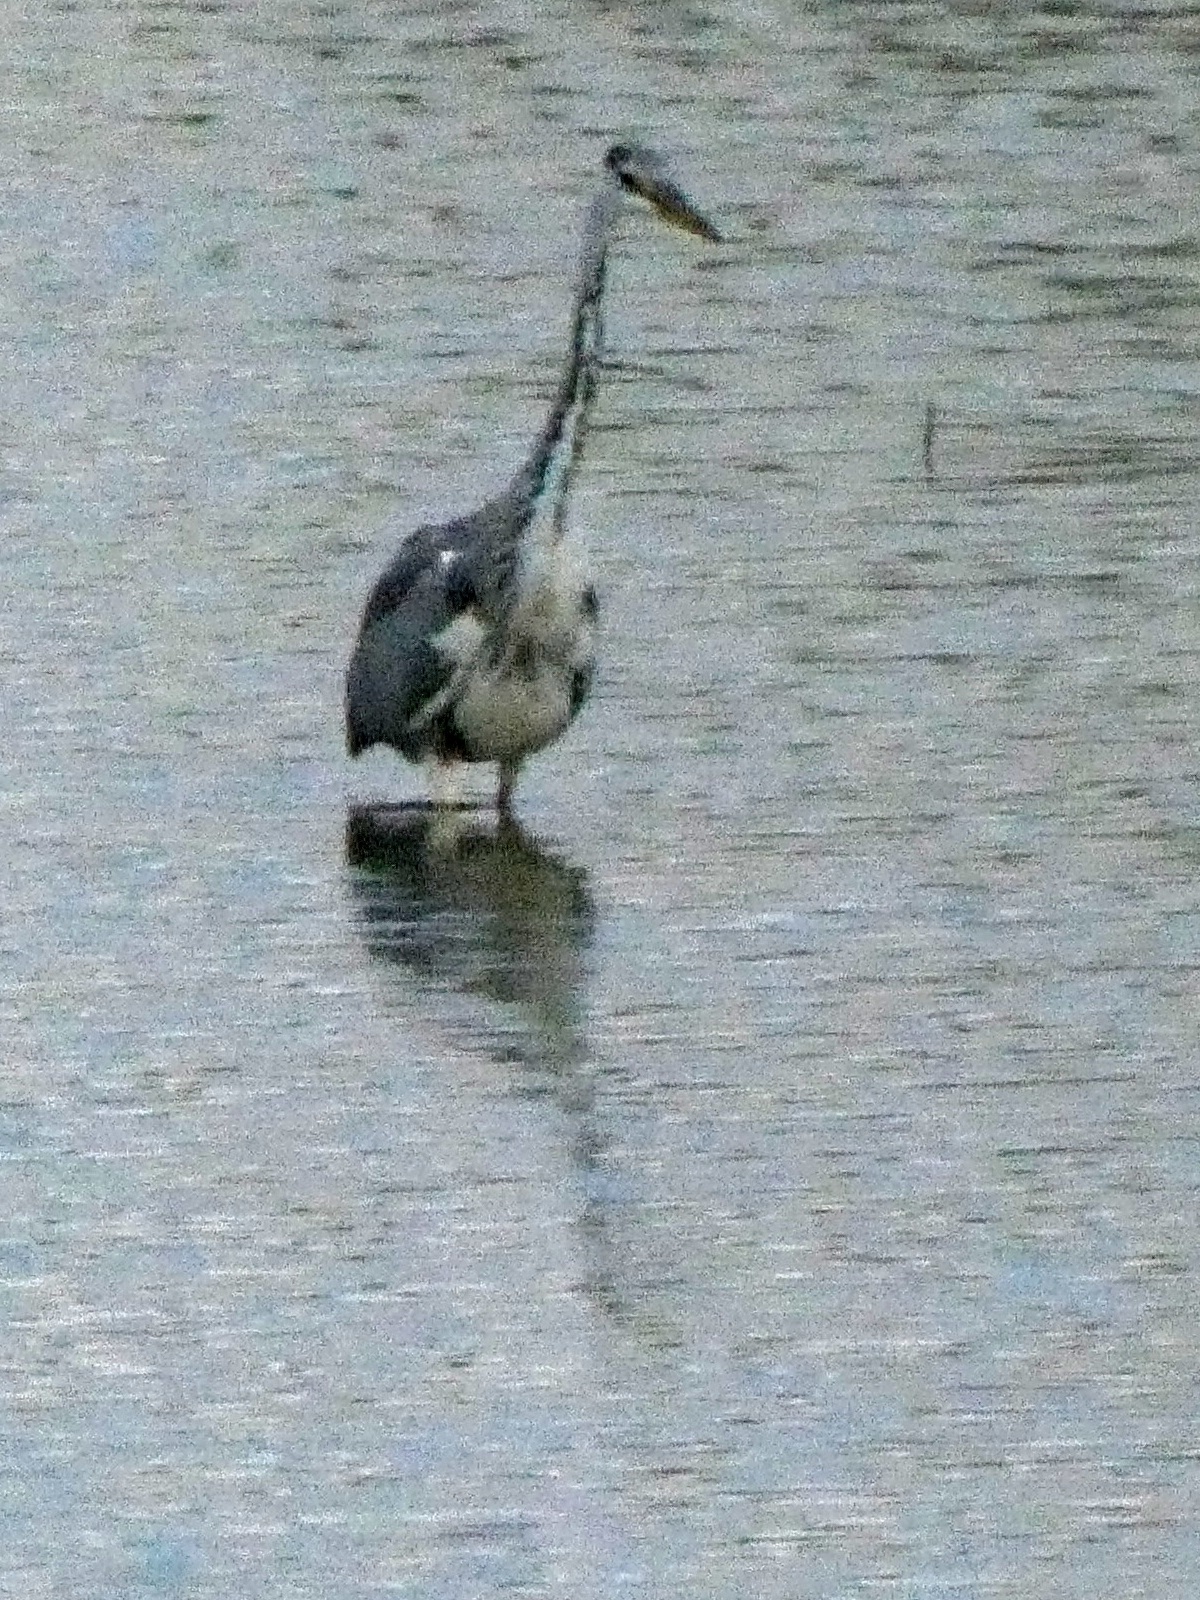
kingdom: Animalia
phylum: Chordata
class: Aves
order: Pelecaniformes
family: Ardeidae
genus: Ardea
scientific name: Ardea cinerea
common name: Grey heron
